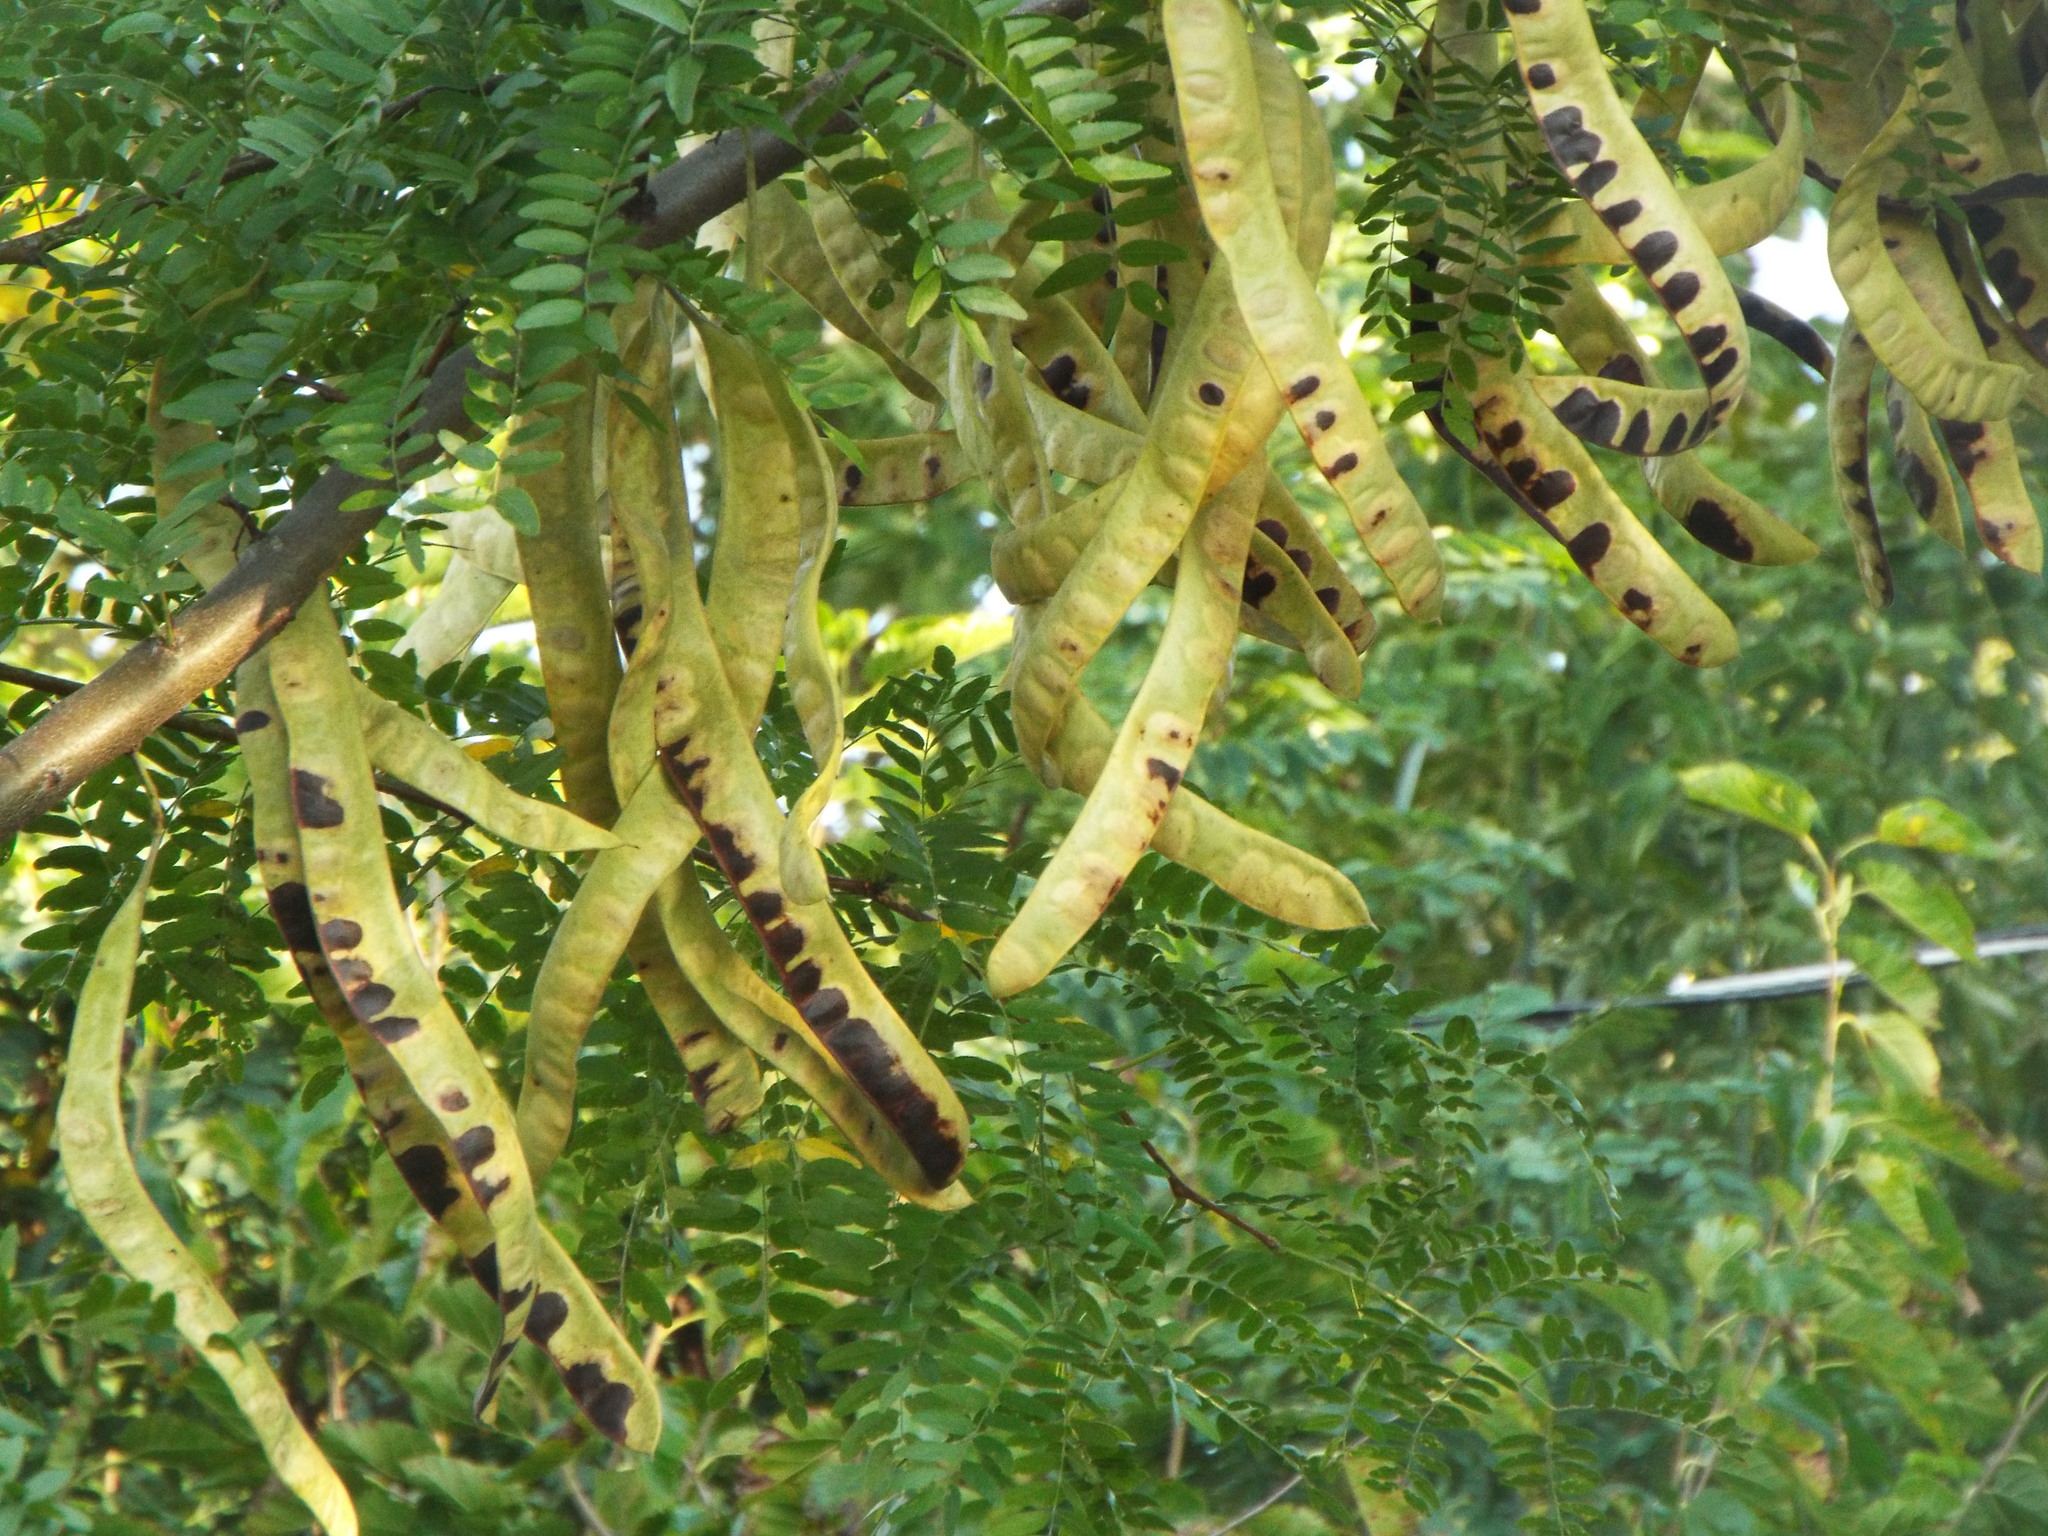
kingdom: Plantae
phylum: Tracheophyta
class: Magnoliopsida
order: Fabales
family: Fabaceae
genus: Gleditsia
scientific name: Gleditsia triacanthos
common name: Common honeylocust
